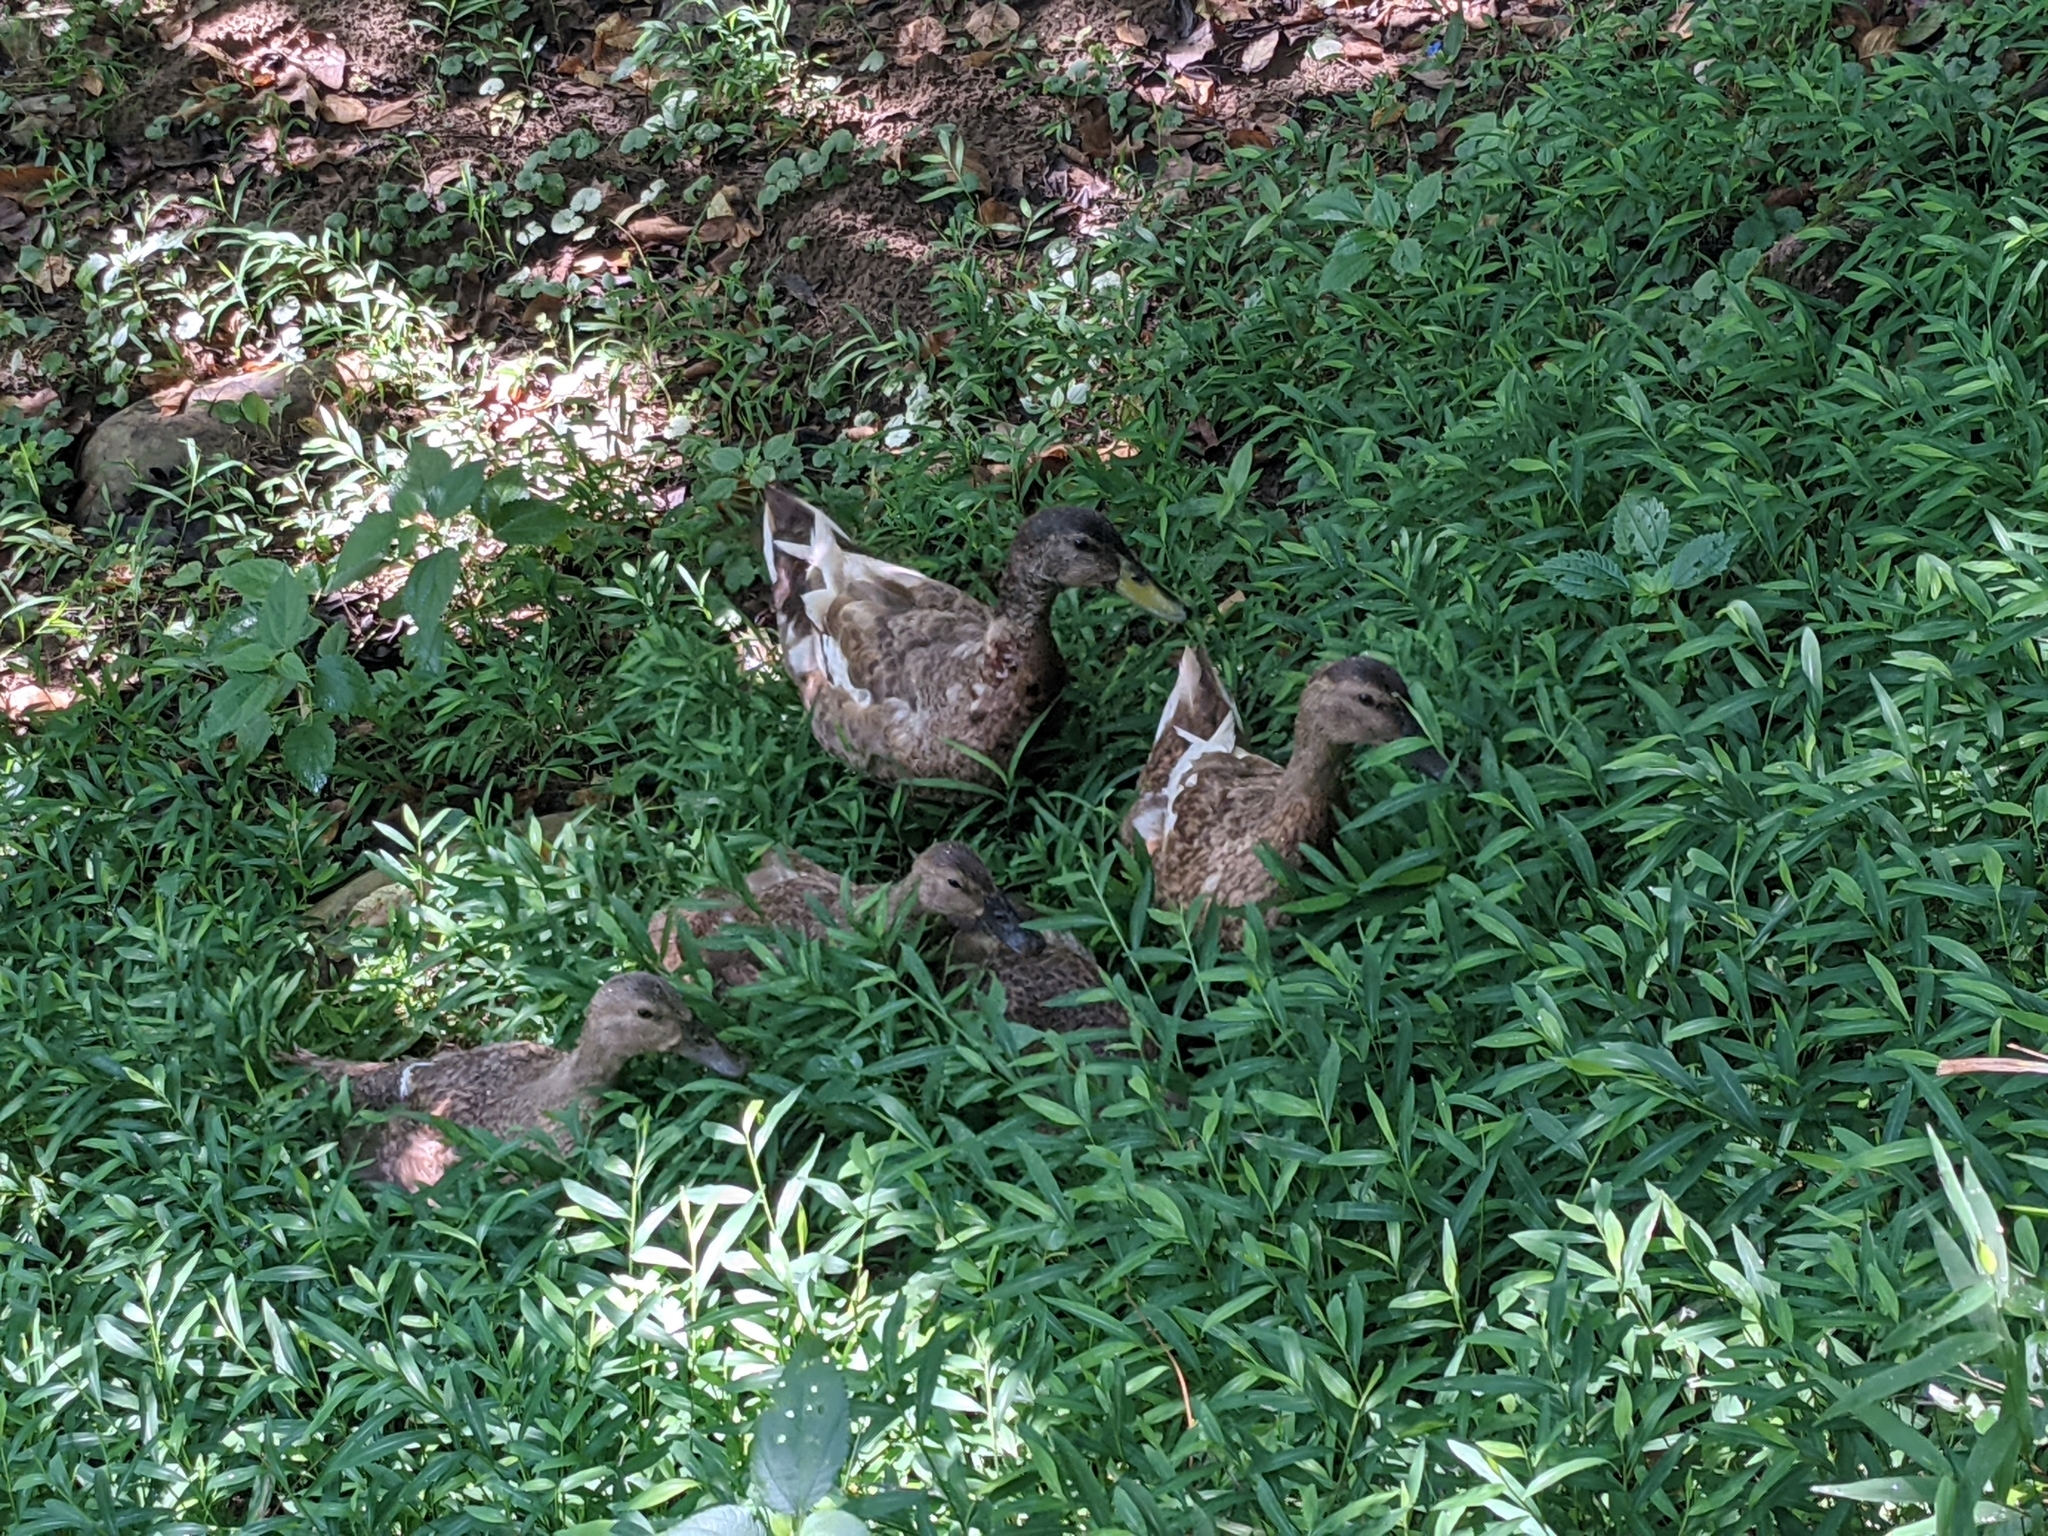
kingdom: Animalia
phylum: Chordata
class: Aves
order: Anseriformes
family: Anatidae
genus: Anas
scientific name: Anas platyrhynchos
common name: Mallard
